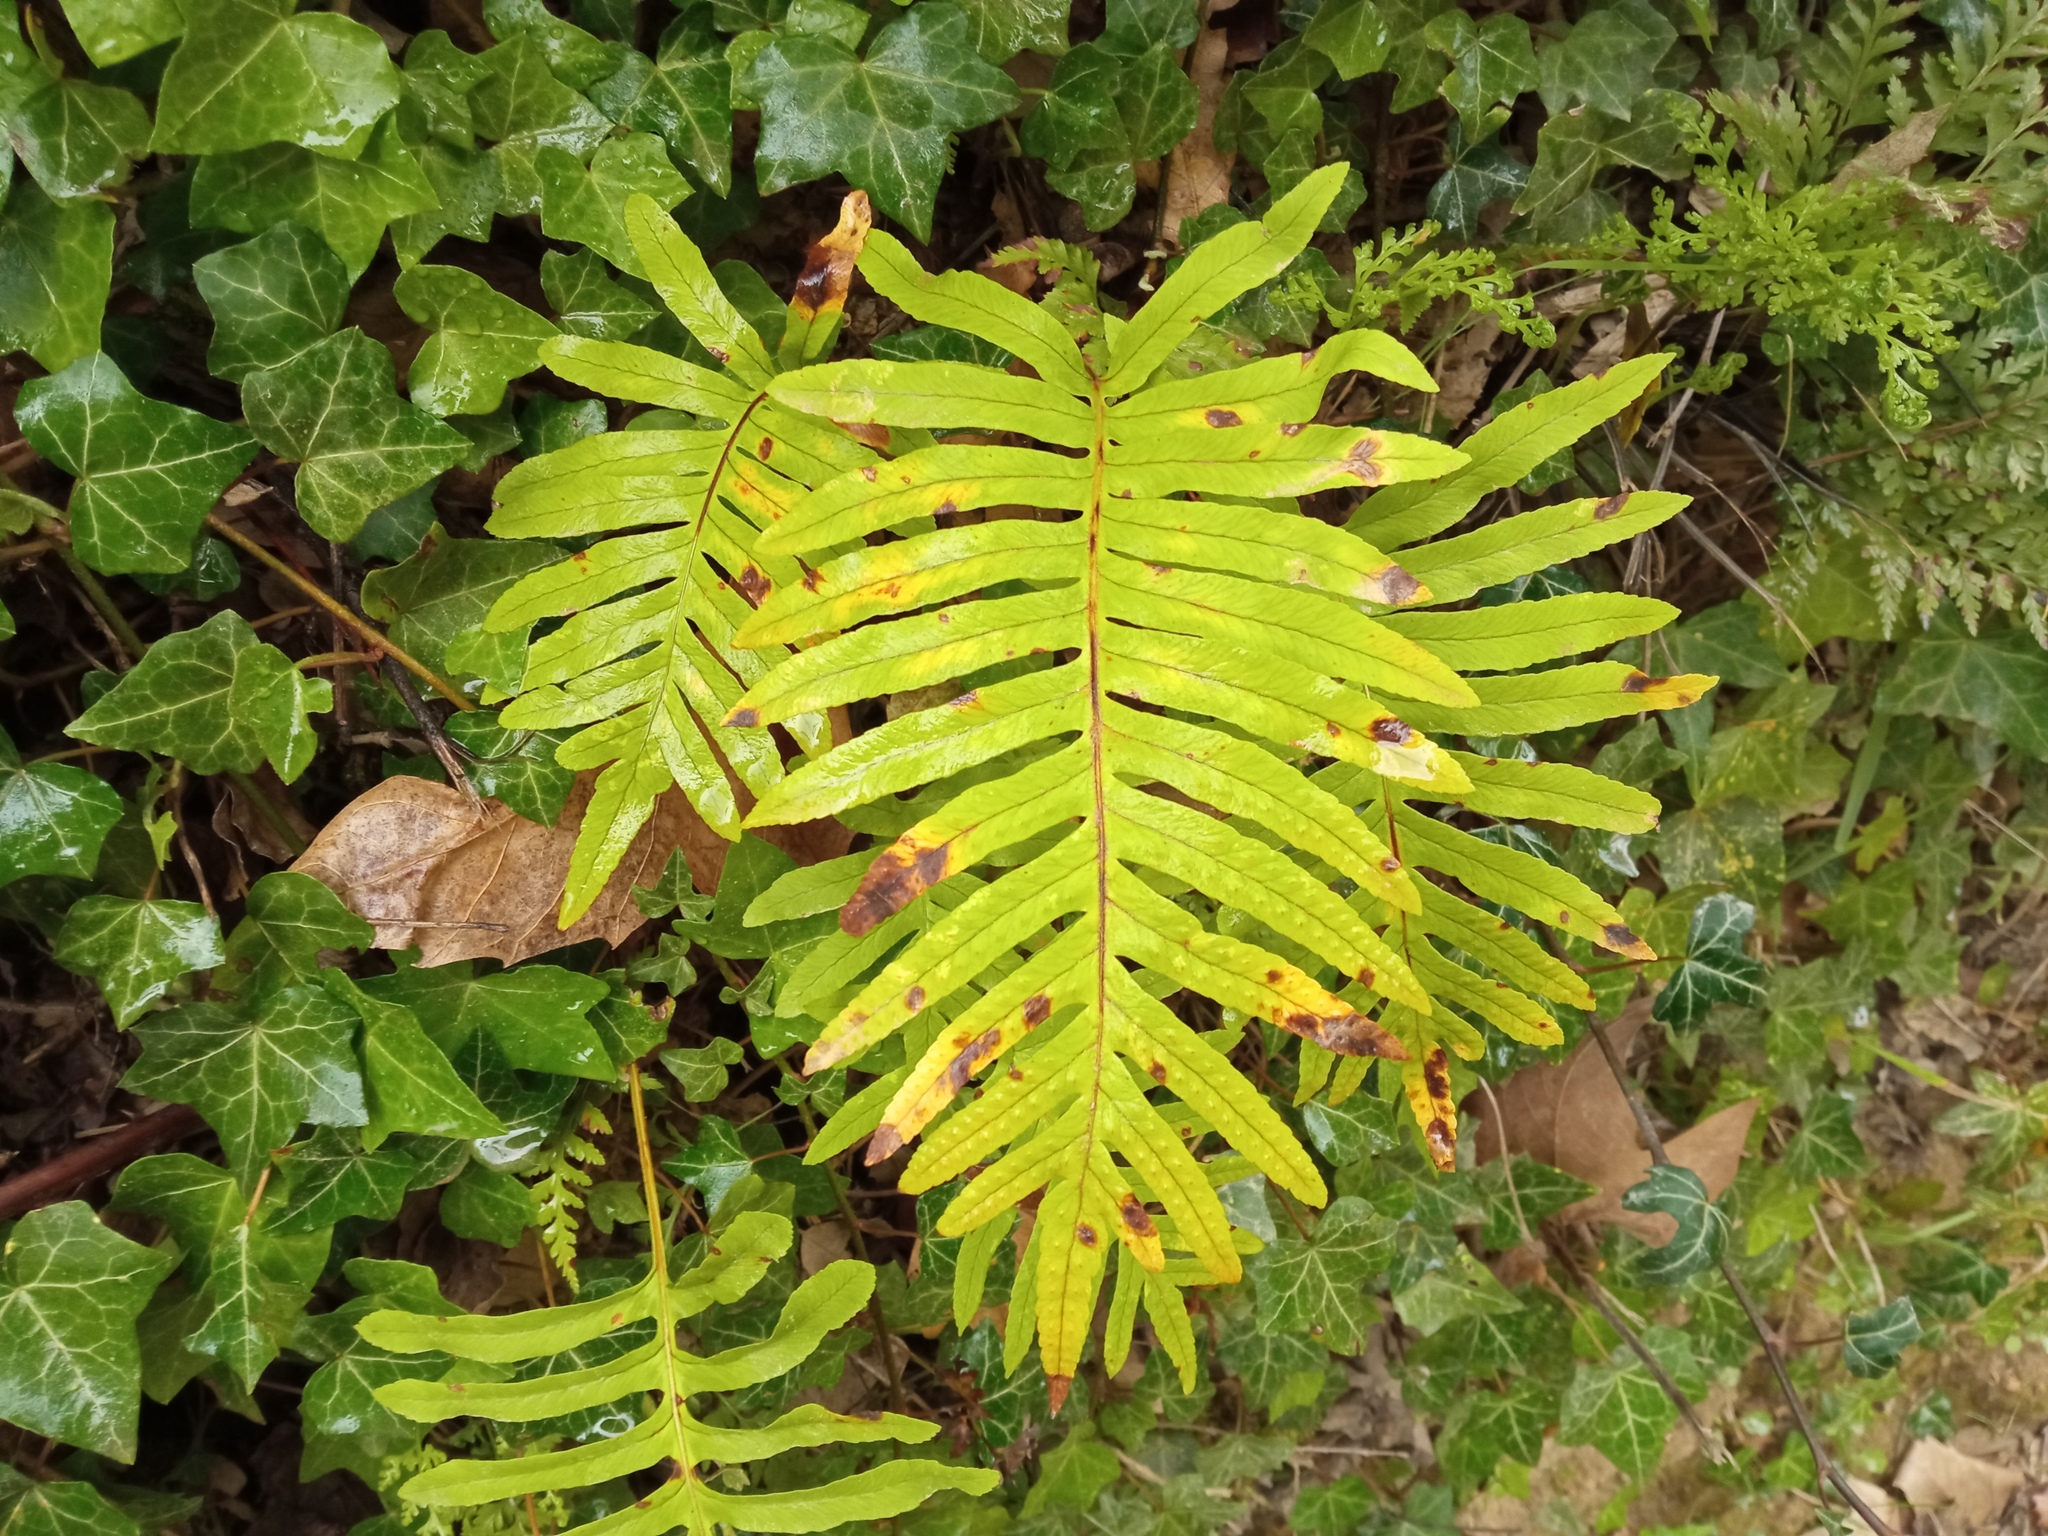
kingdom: Plantae
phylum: Tracheophyta
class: Polypodiopsida
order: Polypodiales
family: Polypodiaceae
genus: Polypodium
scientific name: Polypodium cambricum
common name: Southern polypody
